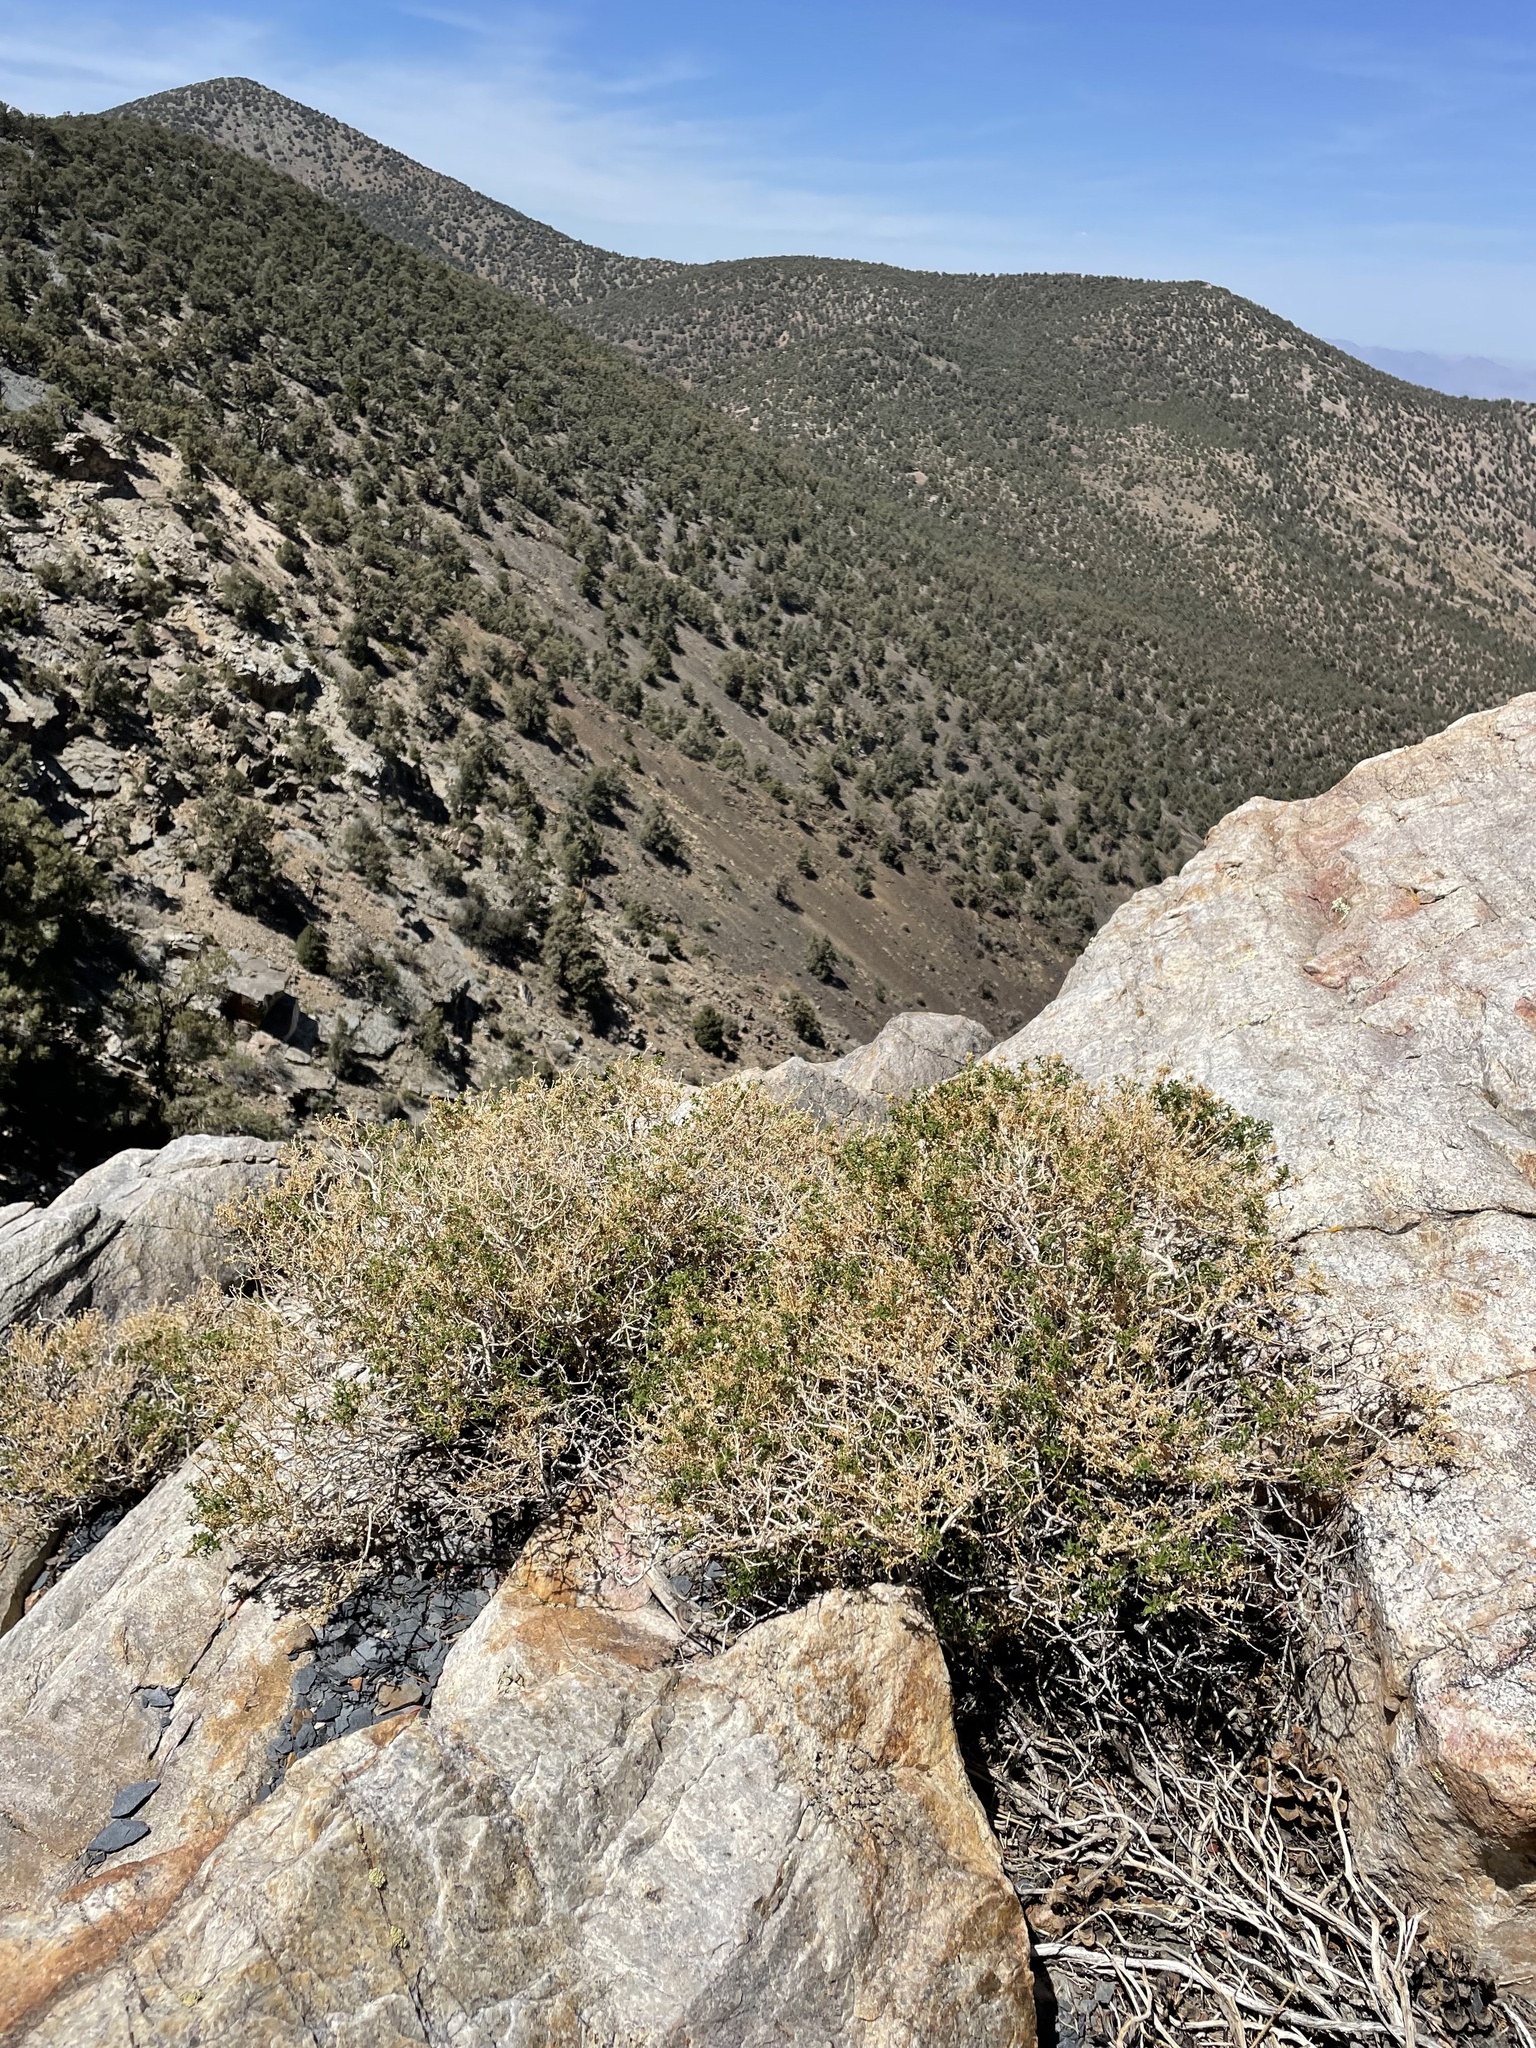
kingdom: Plantae
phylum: Tracheophyta
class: Magnoliopsida
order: Asterales
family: Asteraceae
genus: Ericameria
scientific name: Ericameria gilmanii
